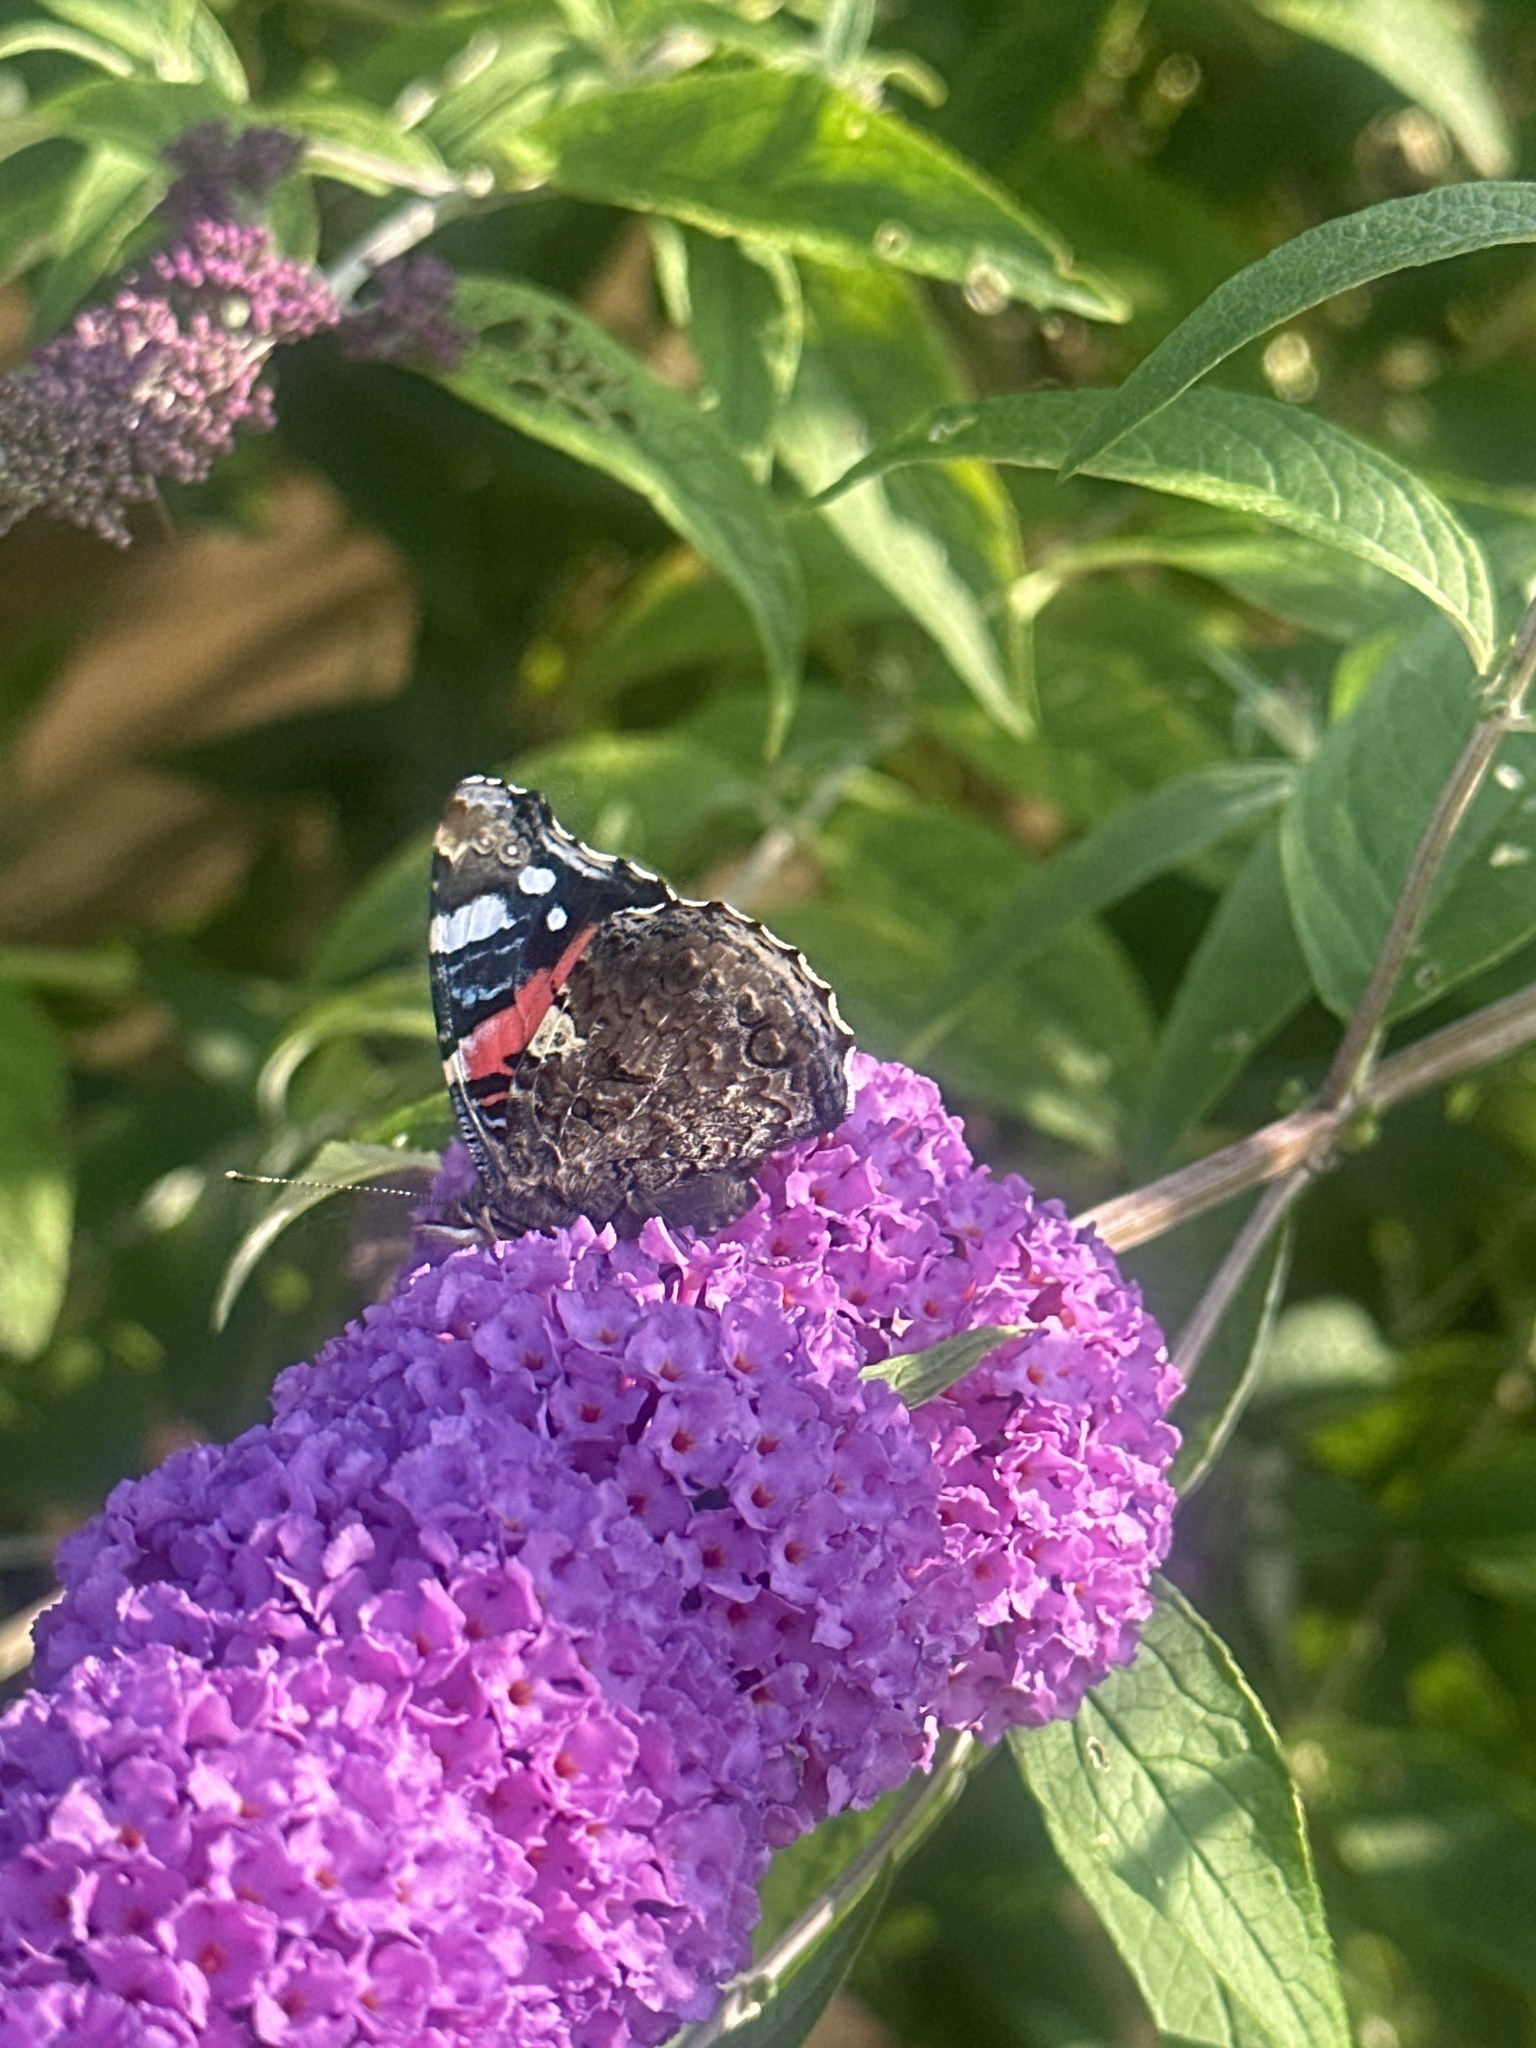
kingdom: Animalia
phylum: Arthropoda
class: Insecta
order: Lepidoptera
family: Nymphalidae
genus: Vanessa
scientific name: Vanessa atalanta
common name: Red admiral
